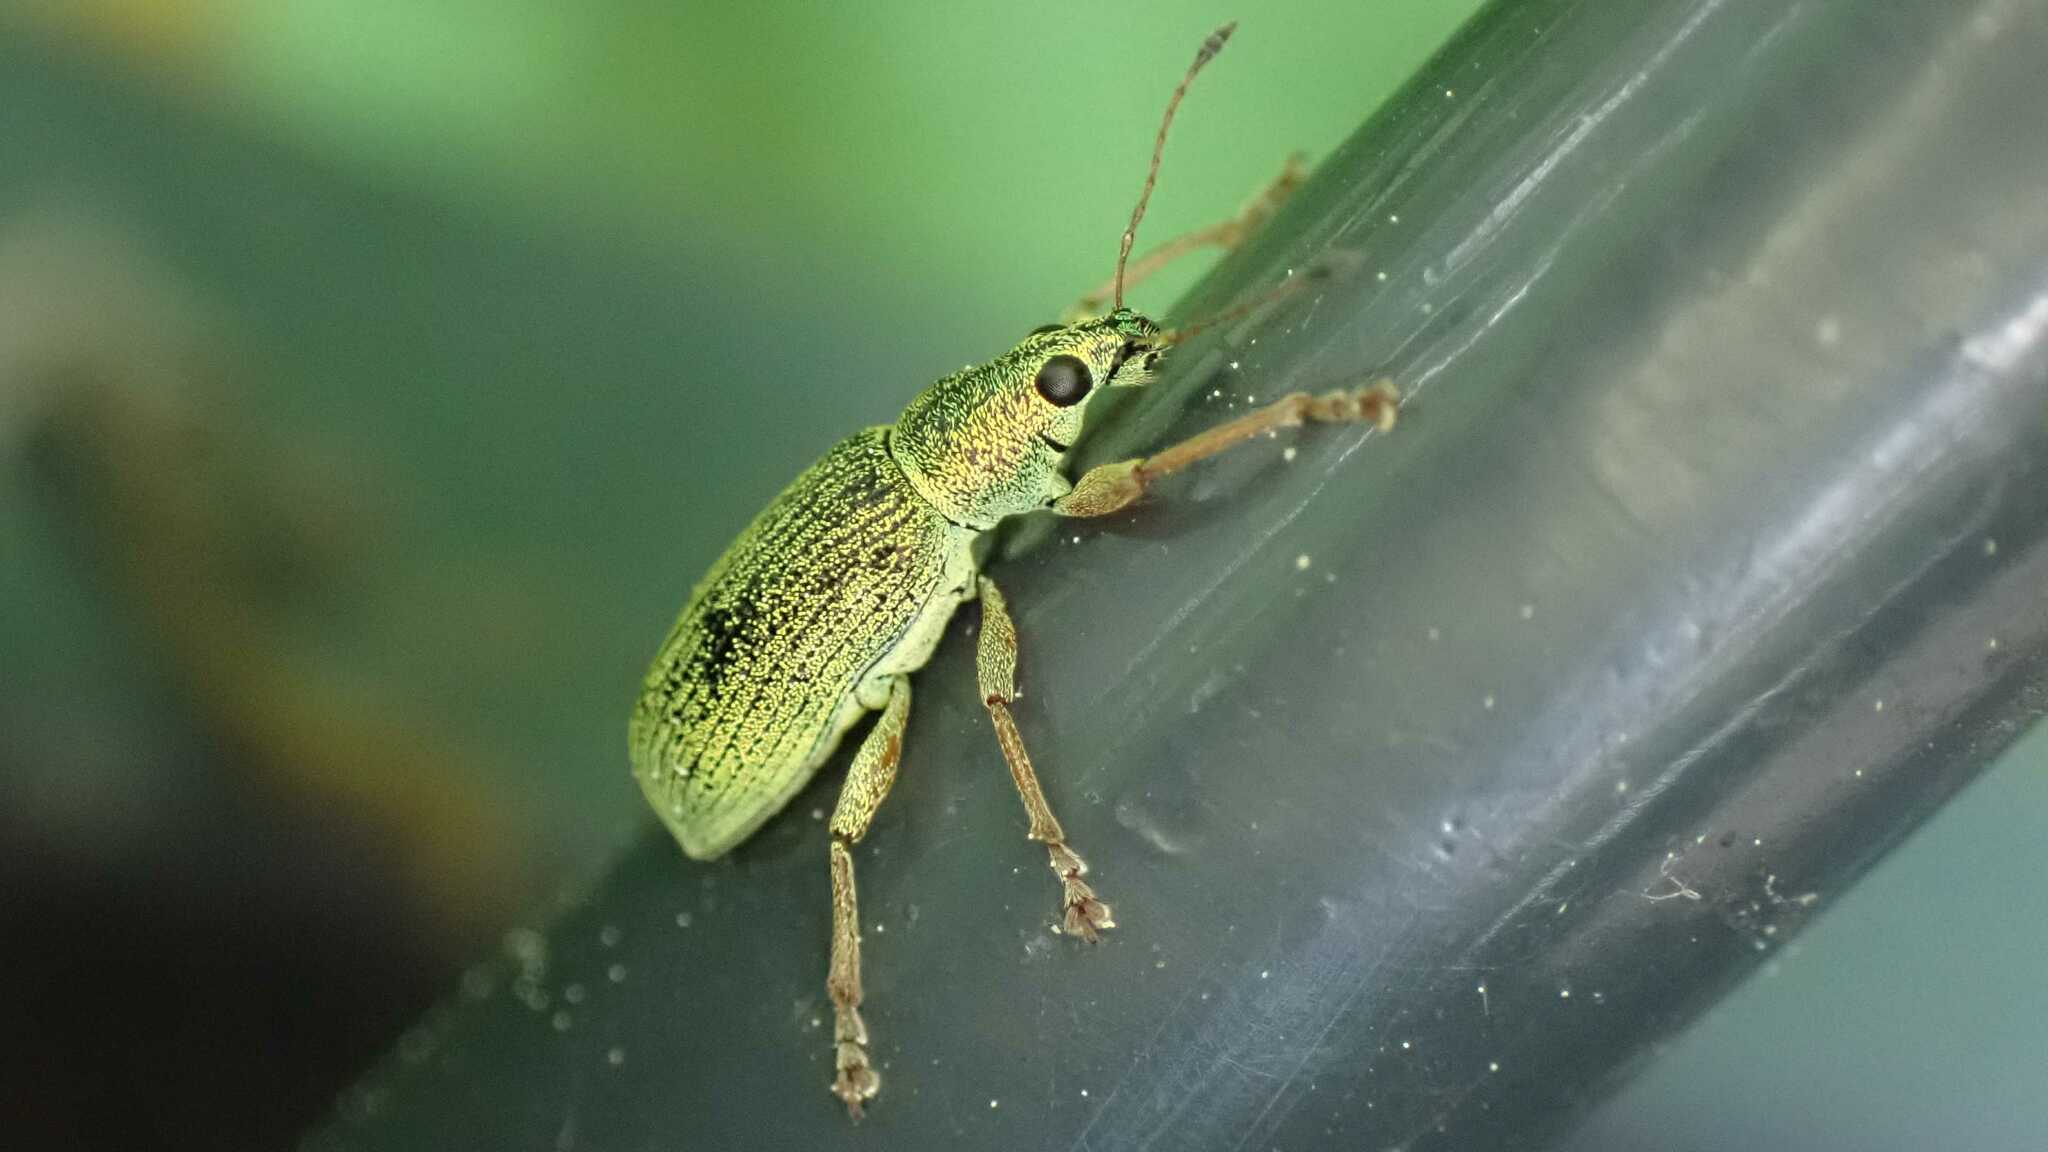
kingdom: Animalia
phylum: Arthropoda
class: Insecta
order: Coleoptera
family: Curculionidae
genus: Polydrusus
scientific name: Polydrusus formosus
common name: Weevil
